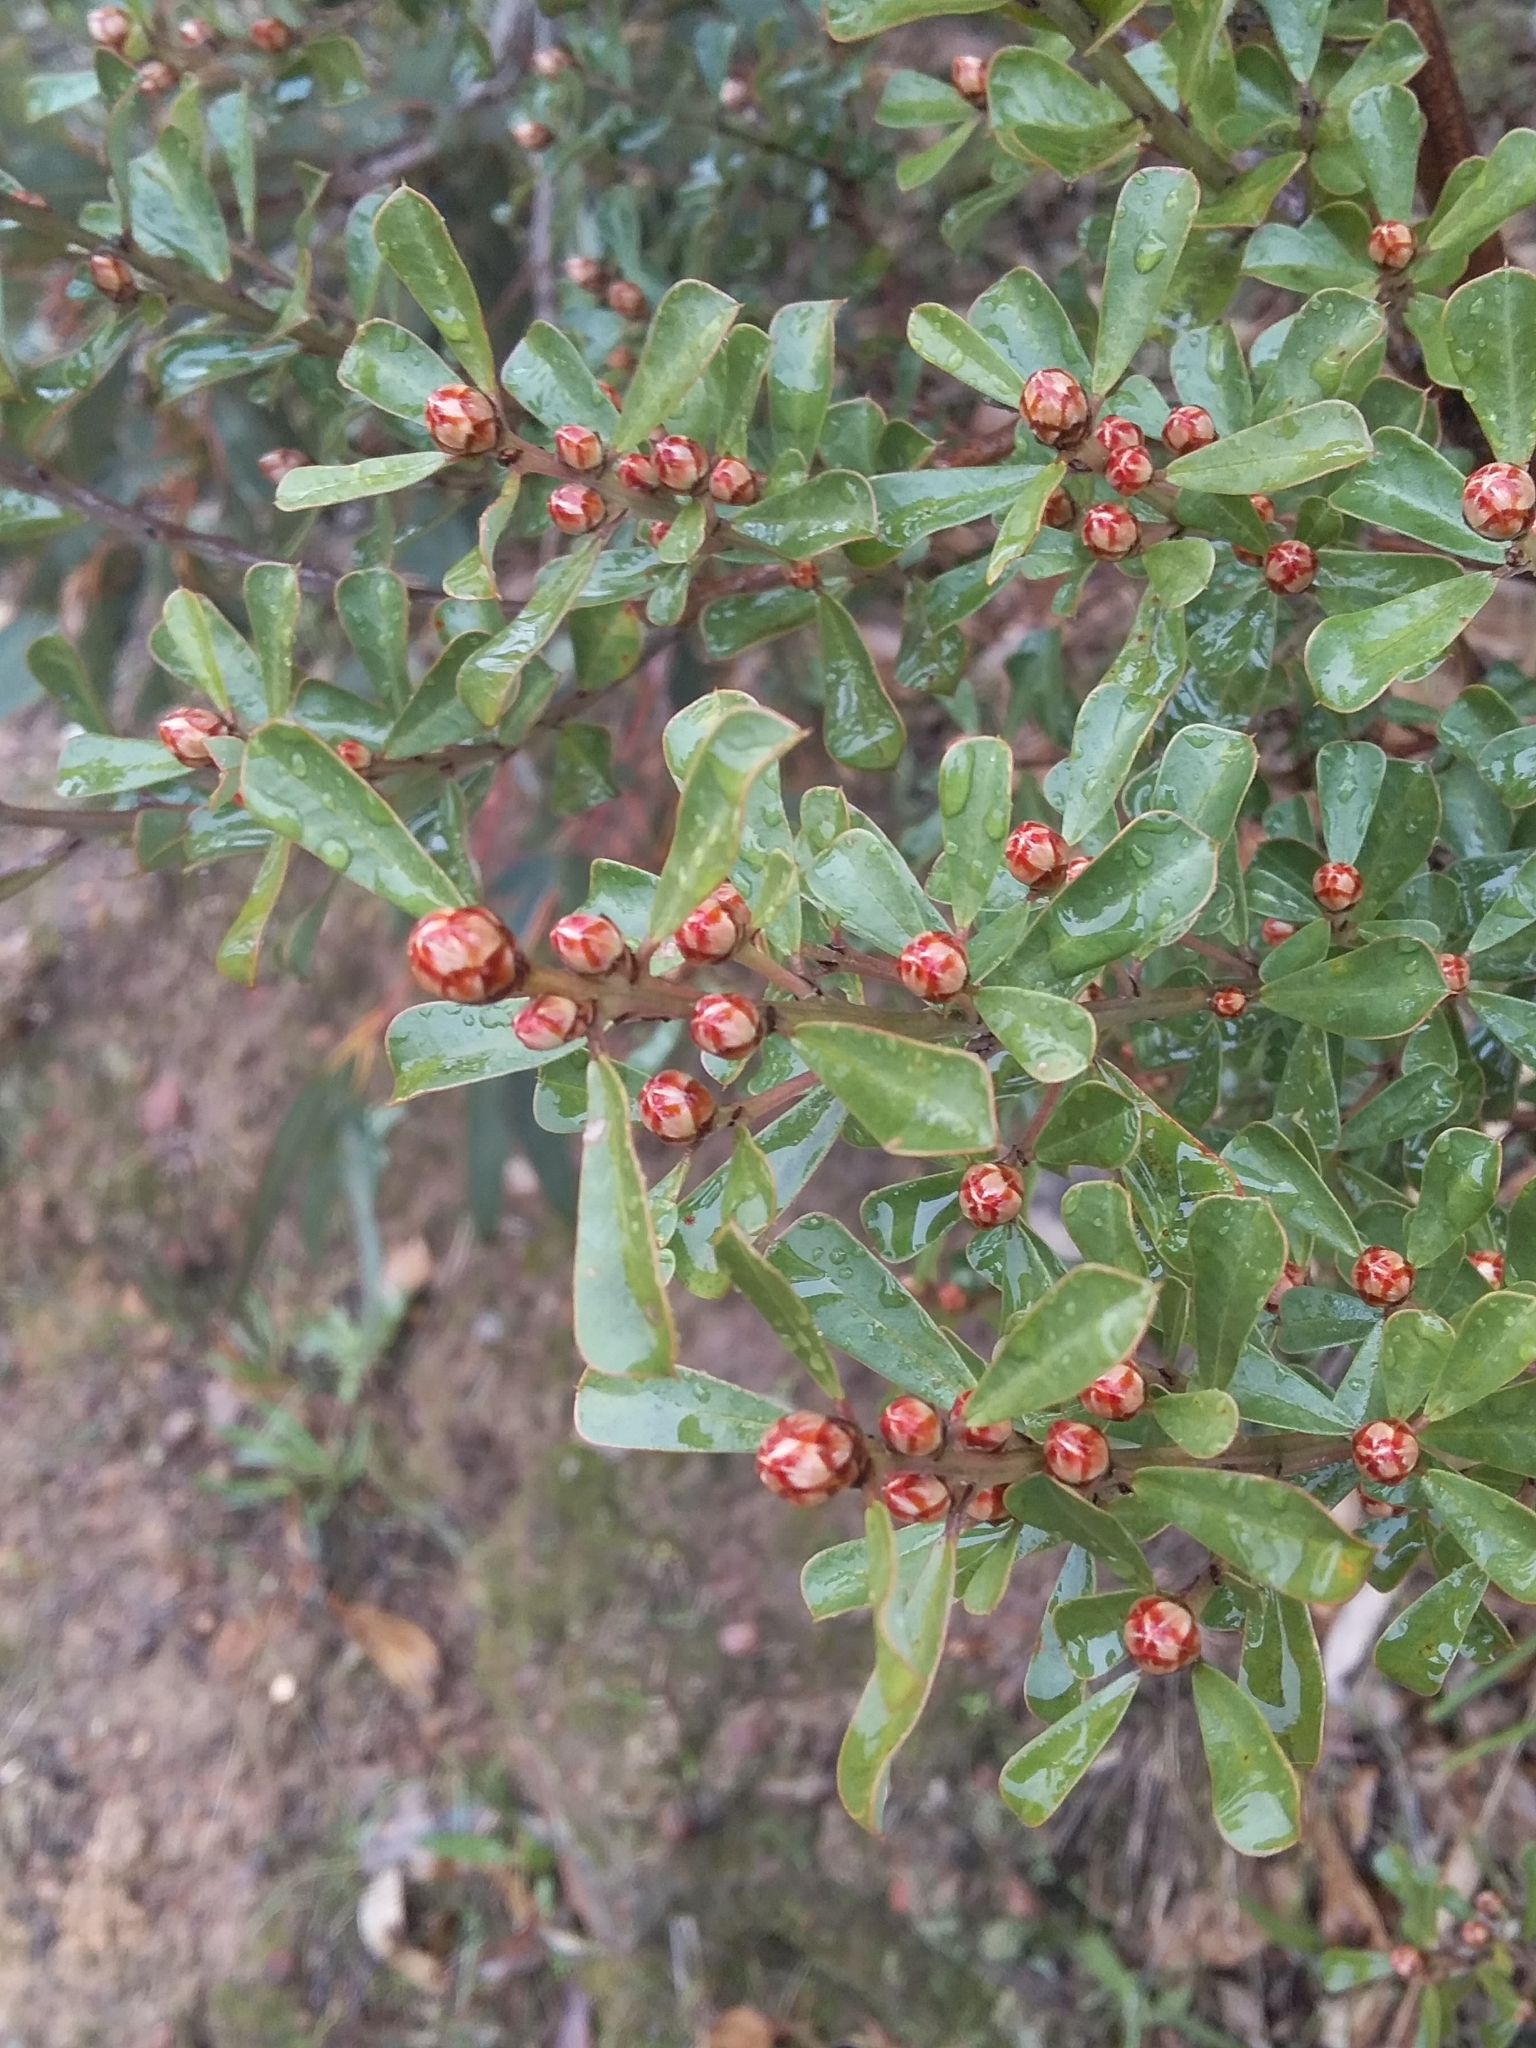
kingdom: Plantae
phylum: Tracheophyta
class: Magnoliopsida
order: Fabales
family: Fabaceae
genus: Pultenaea
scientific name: Pultenaea daphnoides
